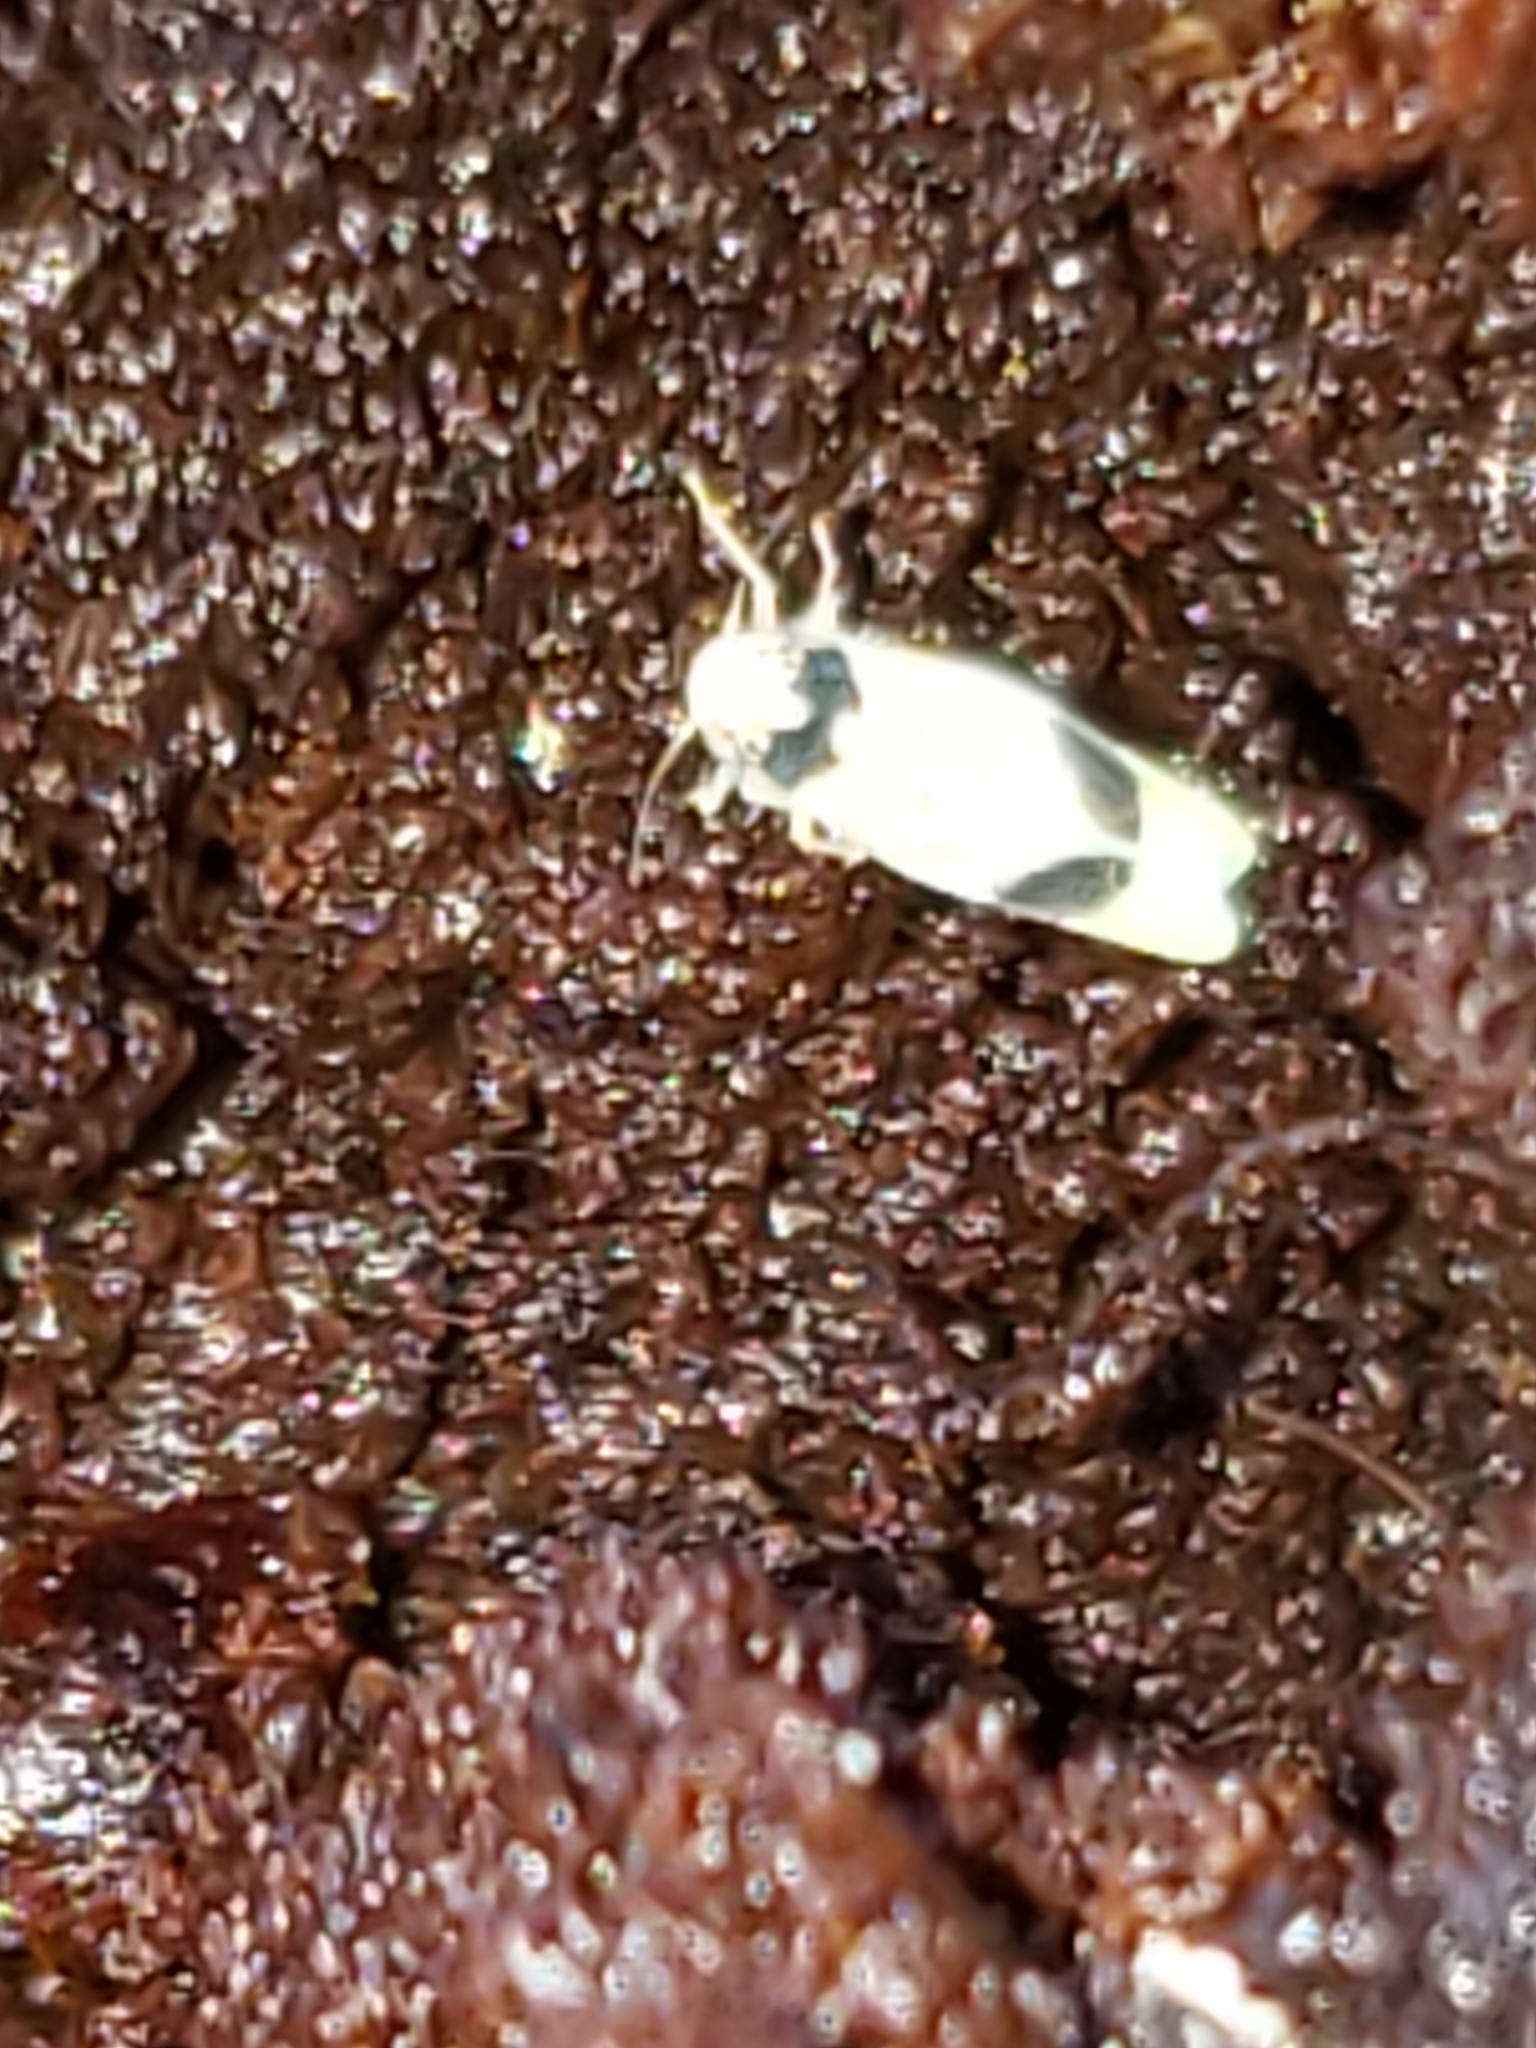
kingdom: Animalia
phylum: Arthropoda
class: Insecta
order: Hemiptera
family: Cicadellidae
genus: Eratoneura
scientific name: Eratoneura morgani
